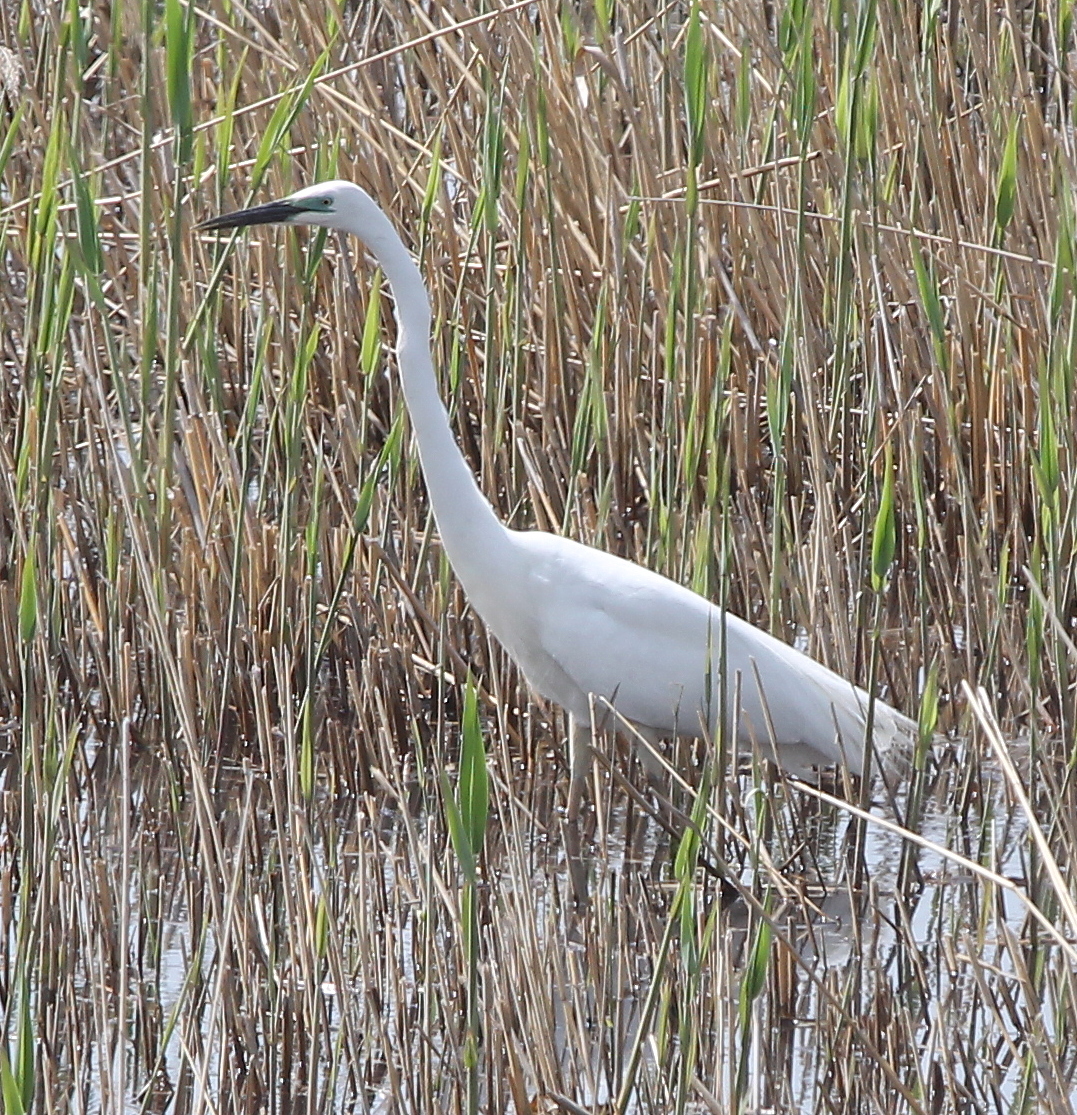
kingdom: Animalia
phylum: Chordata
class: Aves
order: Pelecaniformes
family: Ardeidae
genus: Egretta
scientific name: Egretta garzetta
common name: Little egret
